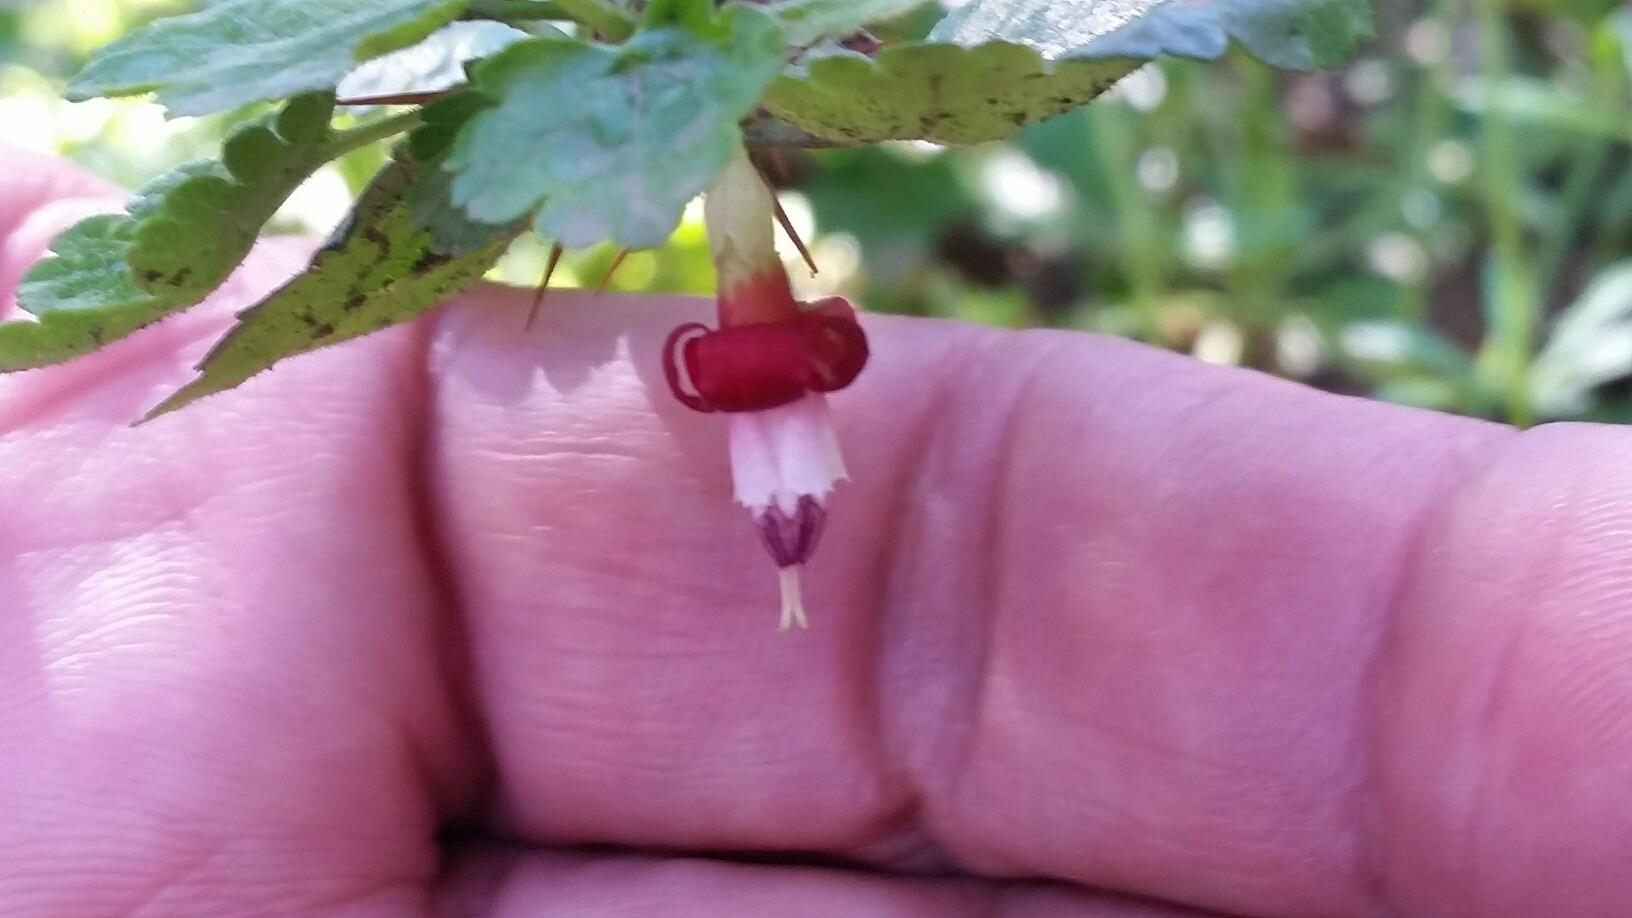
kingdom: Plantae
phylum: Tracheophyta
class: Magnoliopsida
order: Saxifragales
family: Grossulariaceae
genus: Ribes
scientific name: Ribes roezlii
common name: Sierra gooseberry
